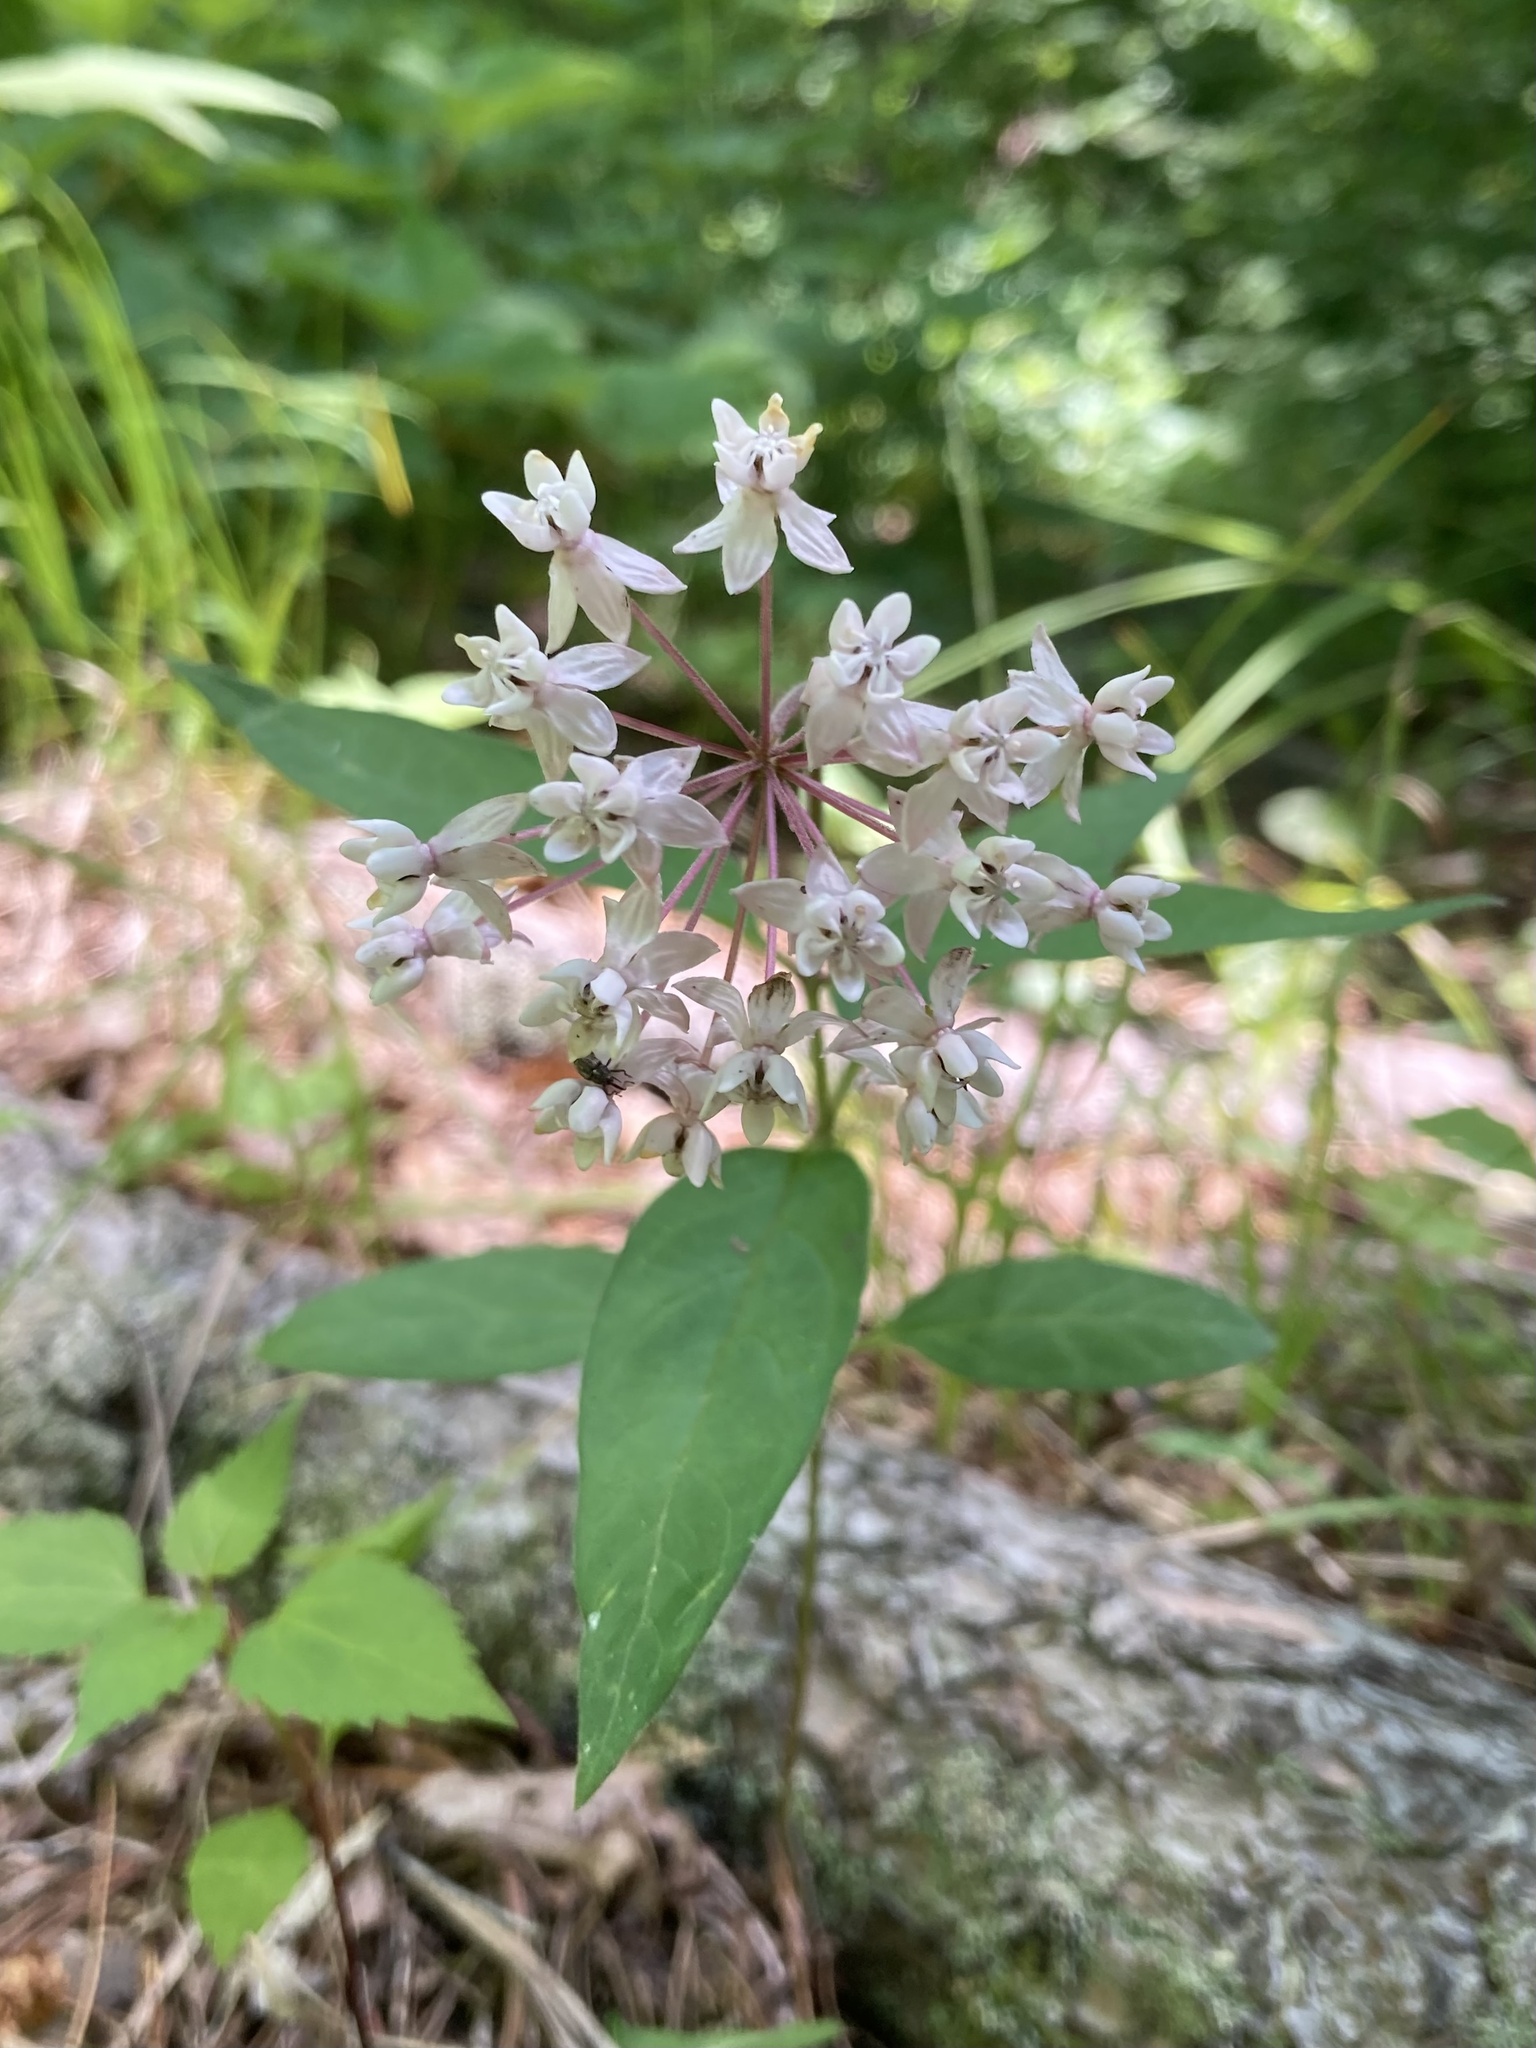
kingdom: Plantae
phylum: Tracheophyta
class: Magnoliopsida
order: Gentianales
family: Apocynaceae
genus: Asclepias
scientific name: Asclepias quadrifolia
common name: Whorled milkweed
